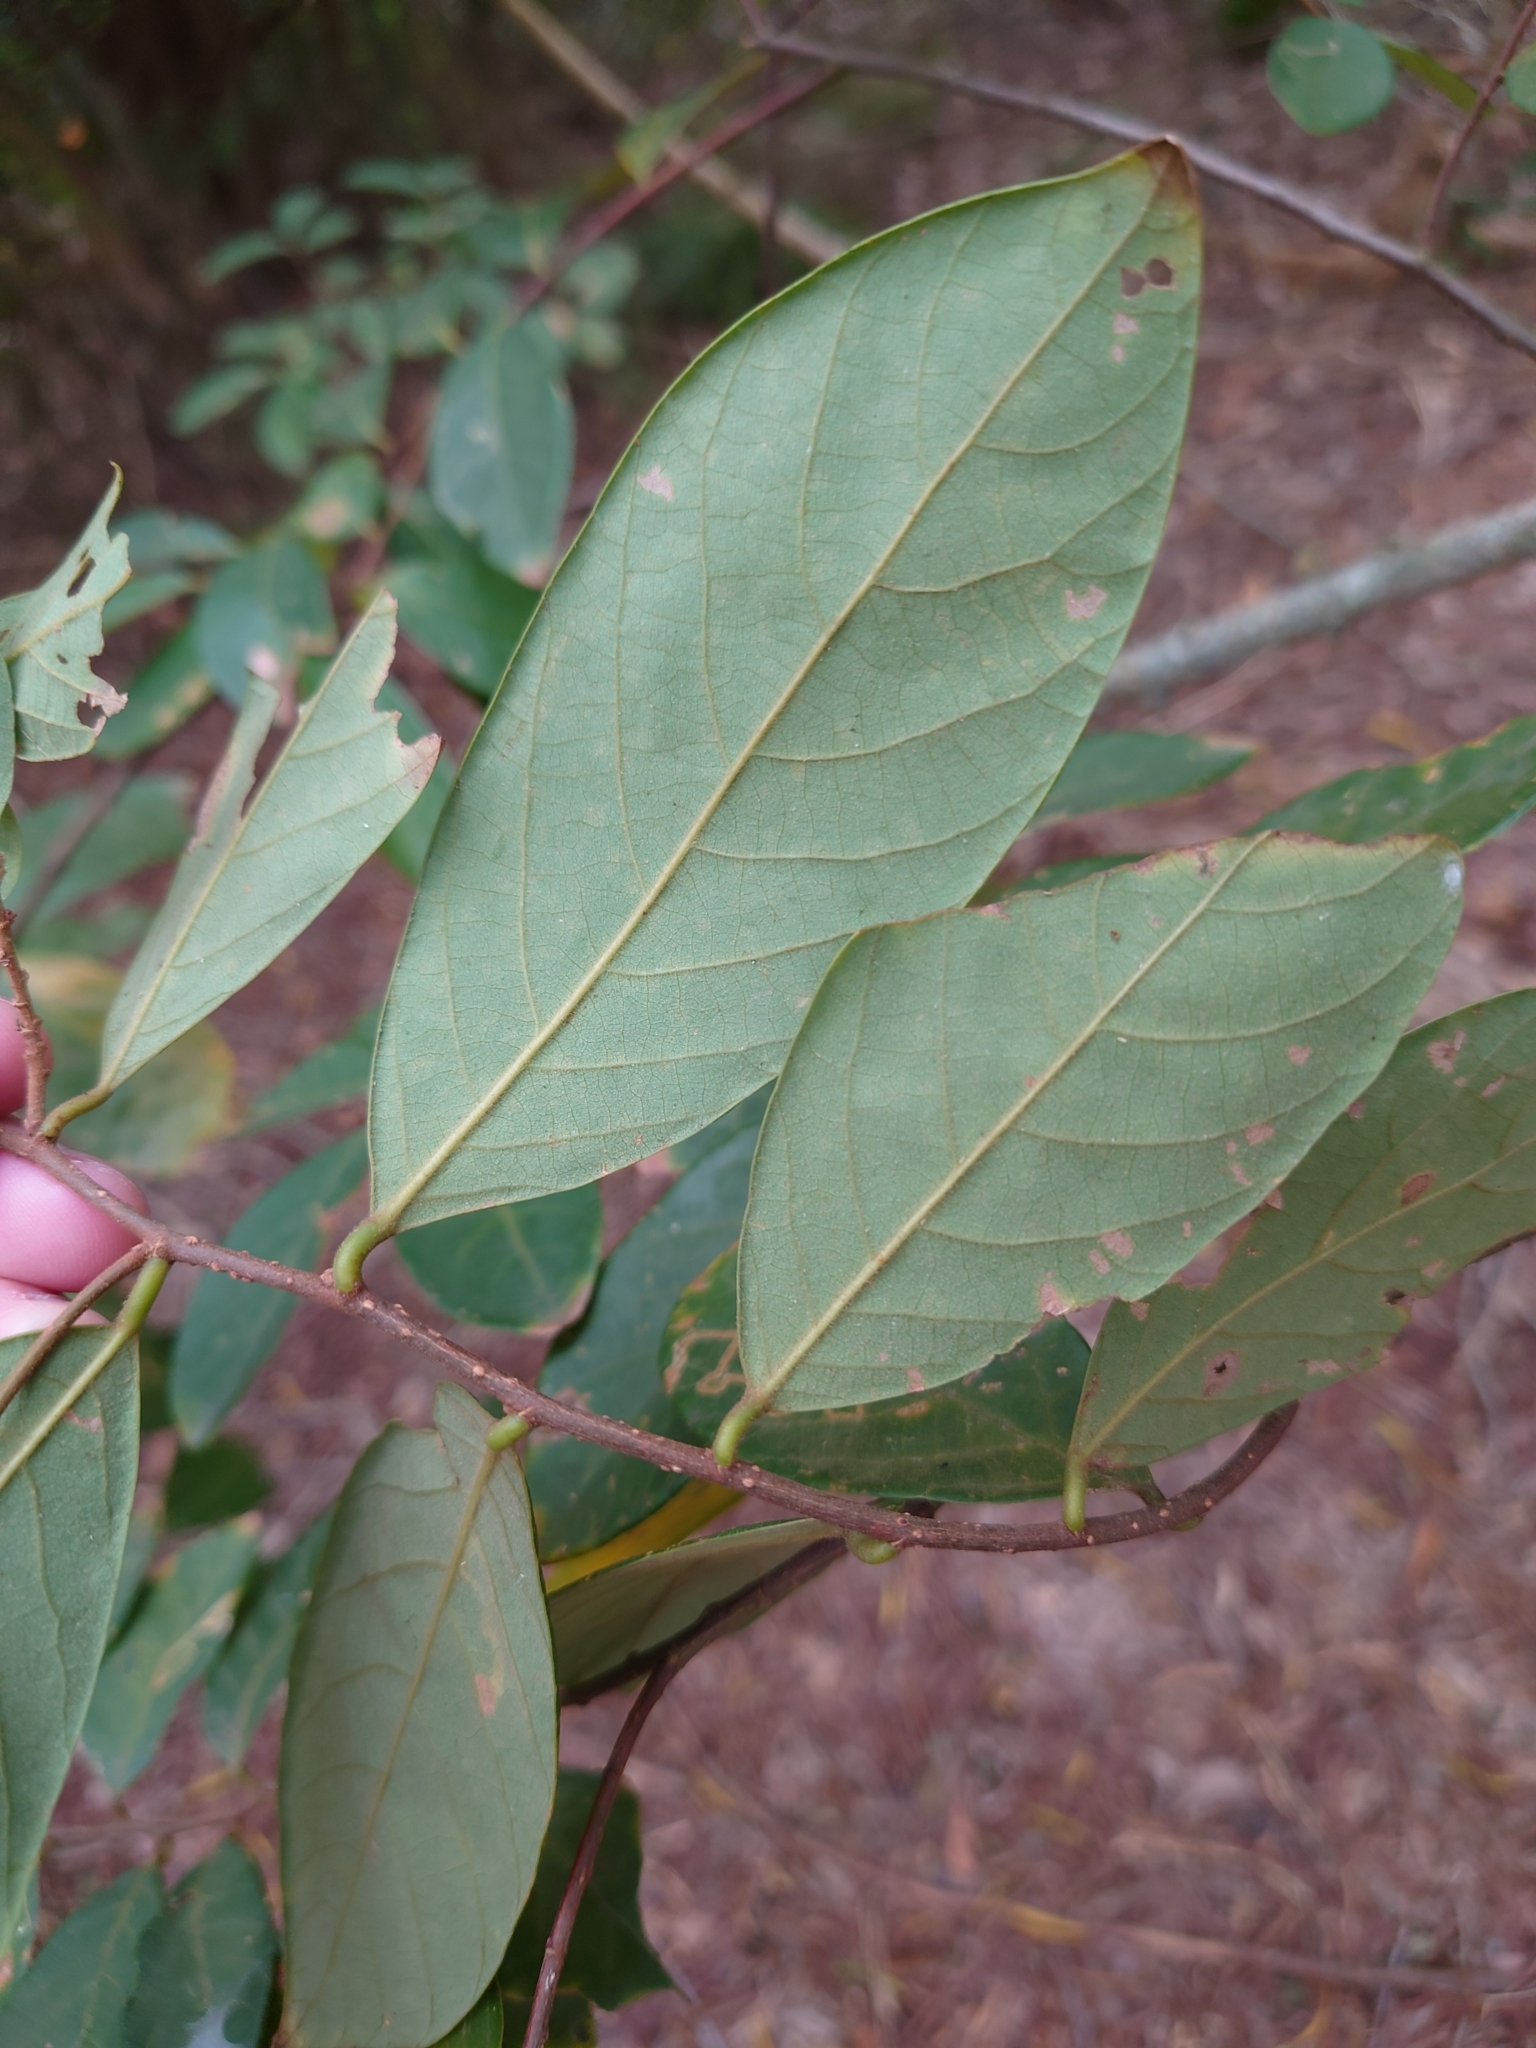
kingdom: Plantae
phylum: Tracheophyta
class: Magnoliopsida
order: Malpighiales
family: Phyllanthaceae
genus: Bridelia
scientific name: Bridelia tomentosa
